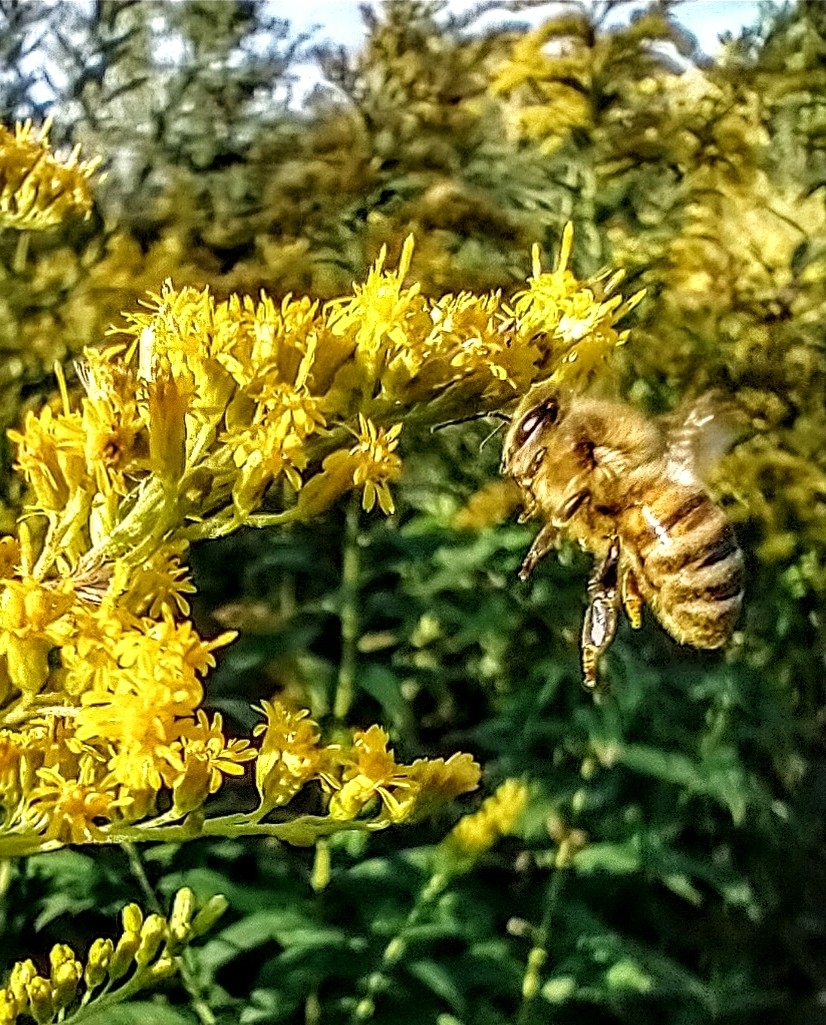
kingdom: Animalia
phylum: Arthropoda
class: Insecta
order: Hymenoptera
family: Apidae
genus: Apis
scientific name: Apis mellifera
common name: Honey bee
